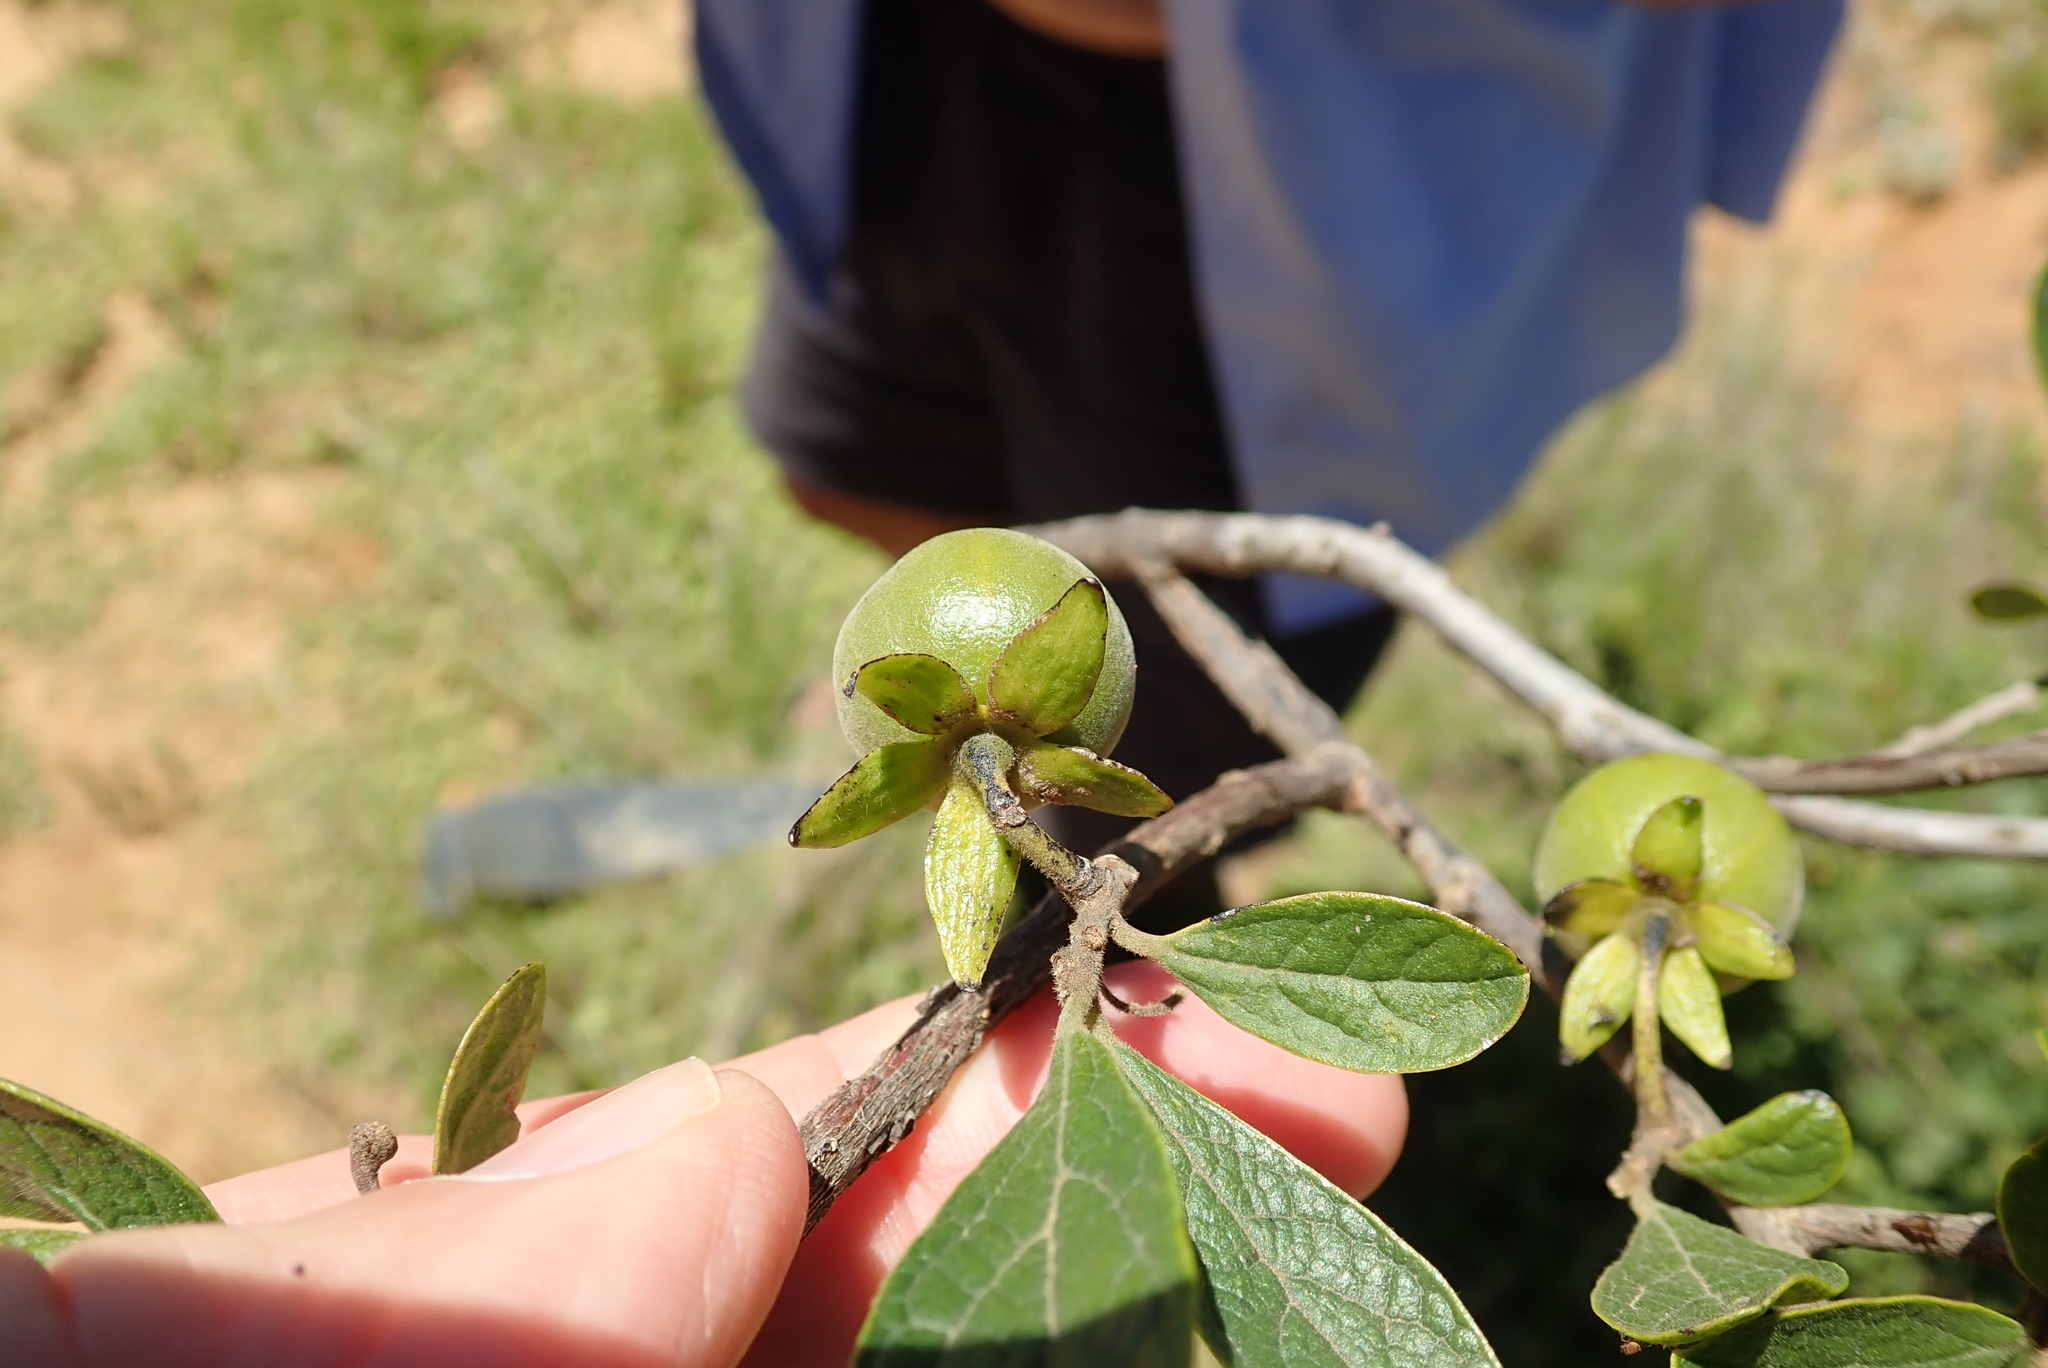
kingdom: Plantae
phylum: Tracheophyta
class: Magnoliopsida
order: Ericales
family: Ebenaceae
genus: Diospyros
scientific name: Diospyros lycioides
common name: Red star apple
